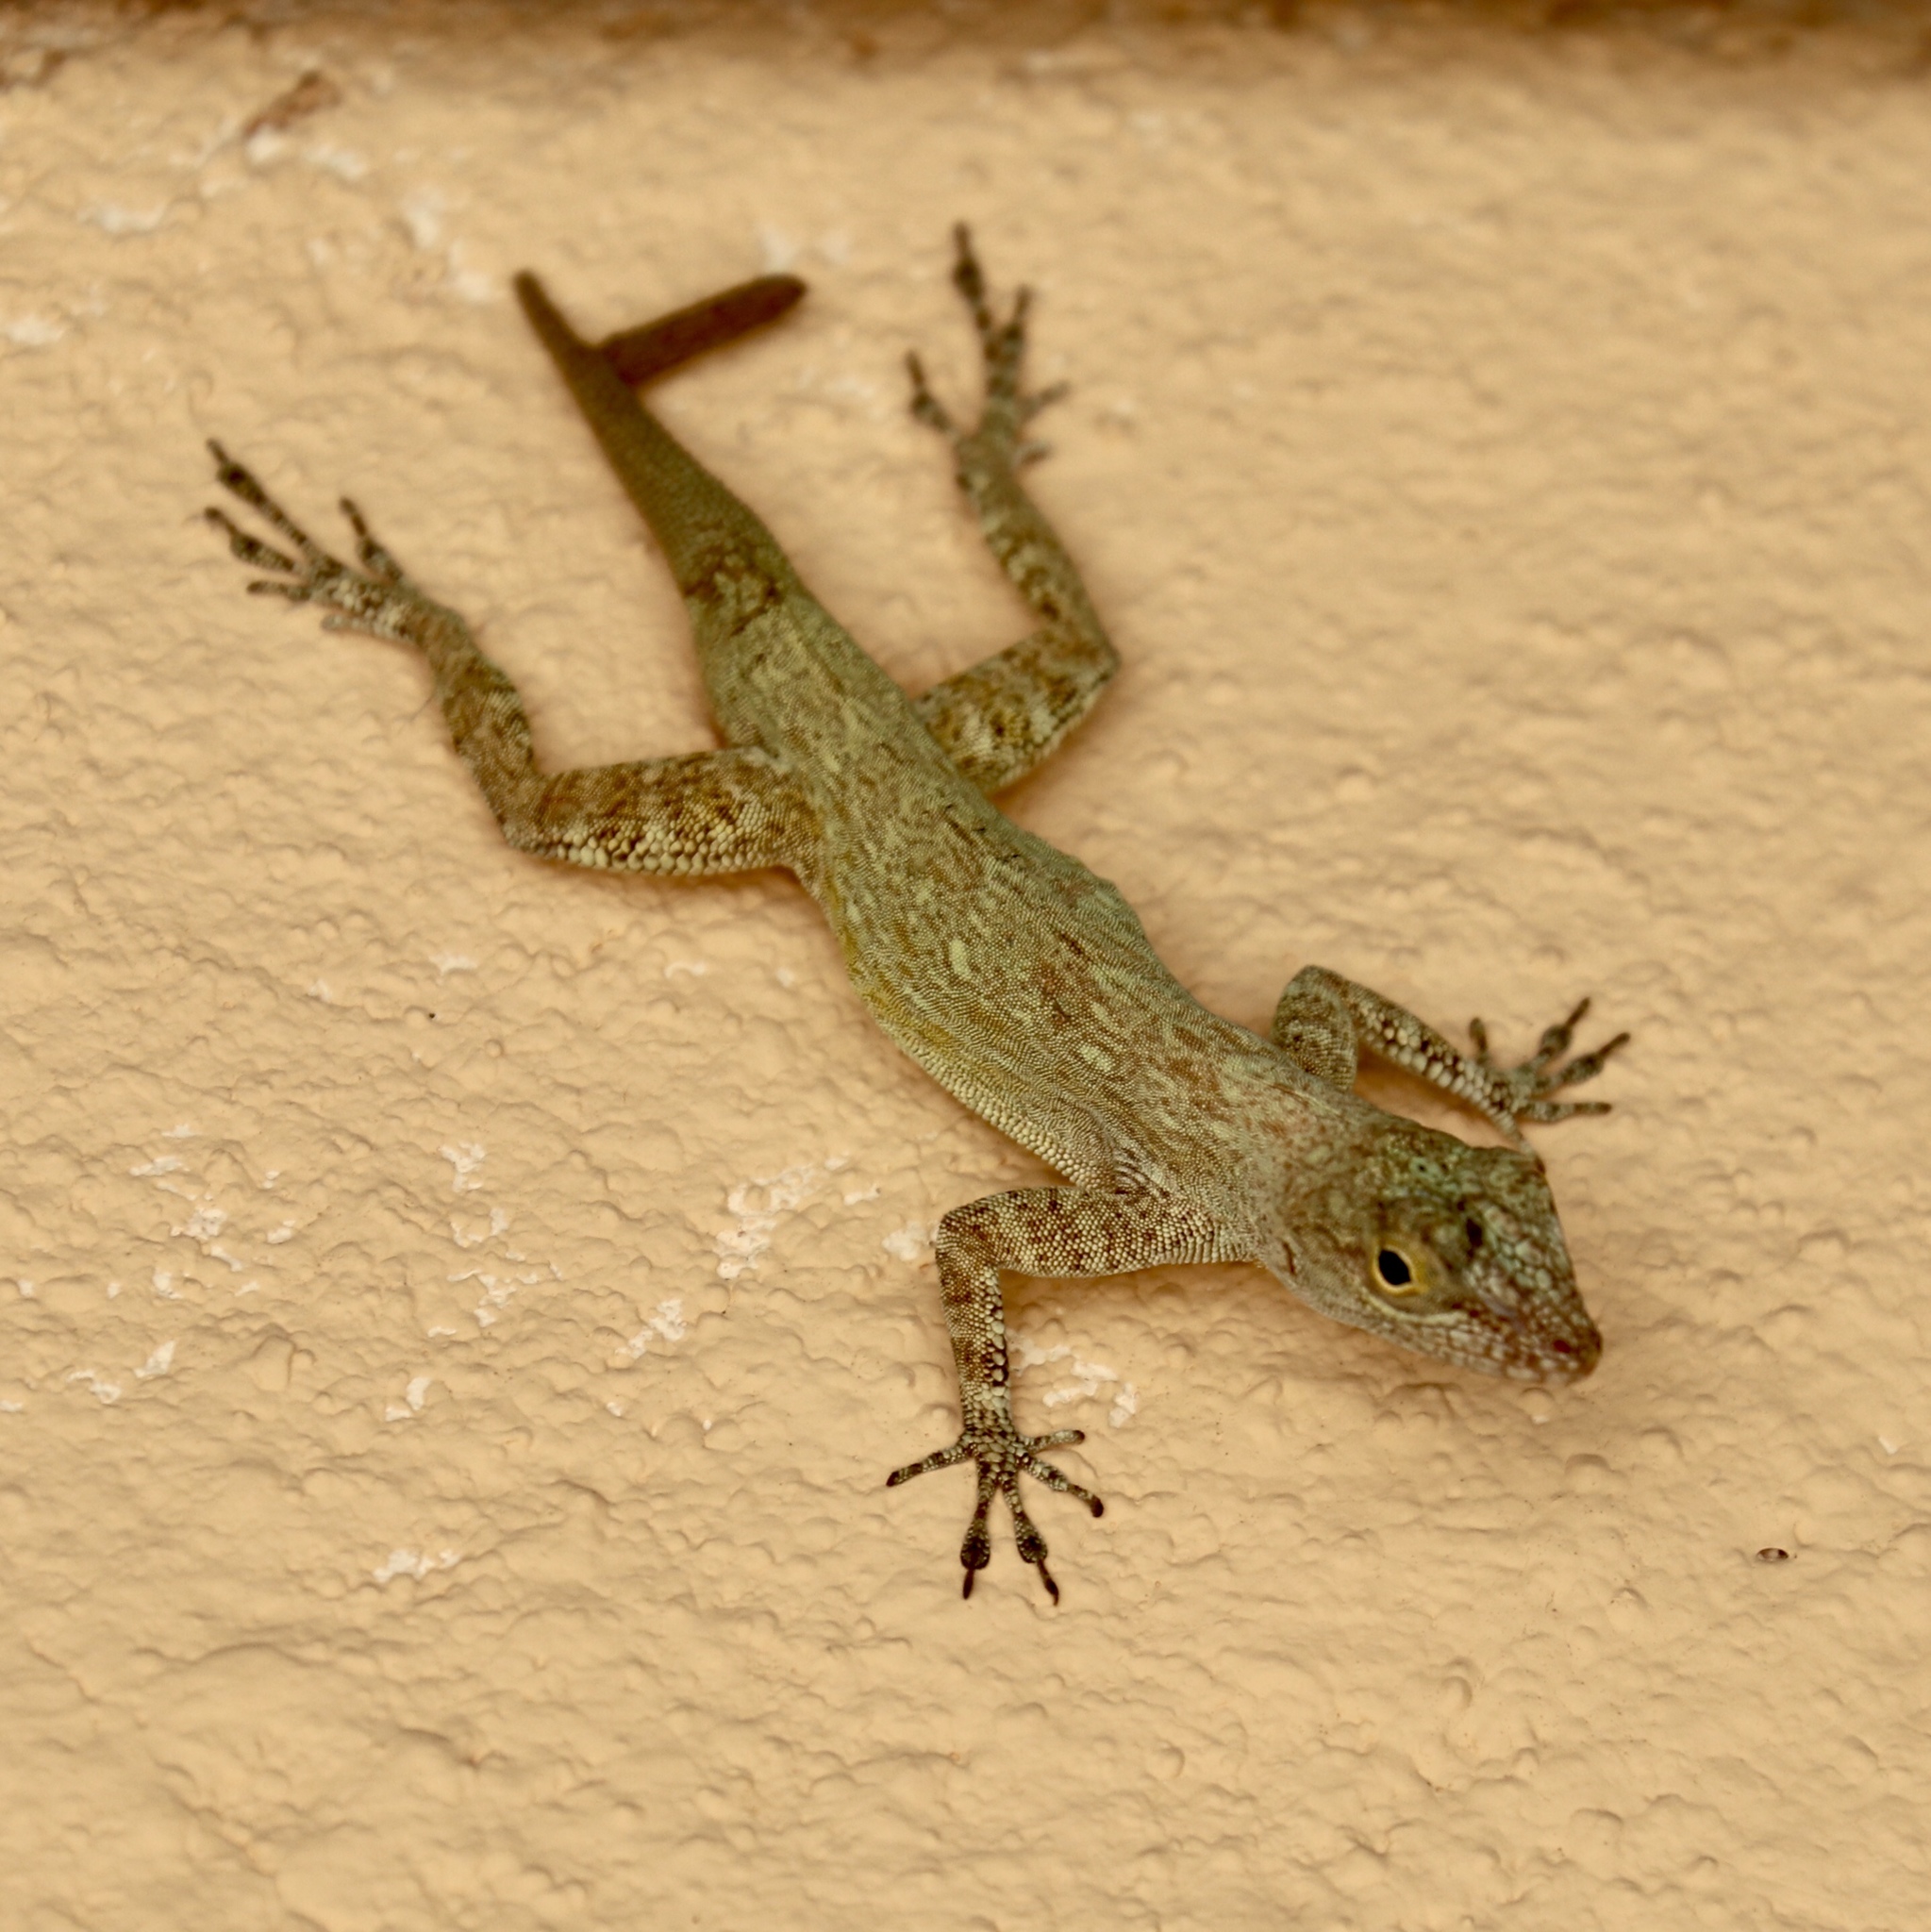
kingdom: Animalia
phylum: Chordata
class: Squamata
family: Dactyloidae
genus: Anolis
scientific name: Anolis properus
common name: Bark anole
